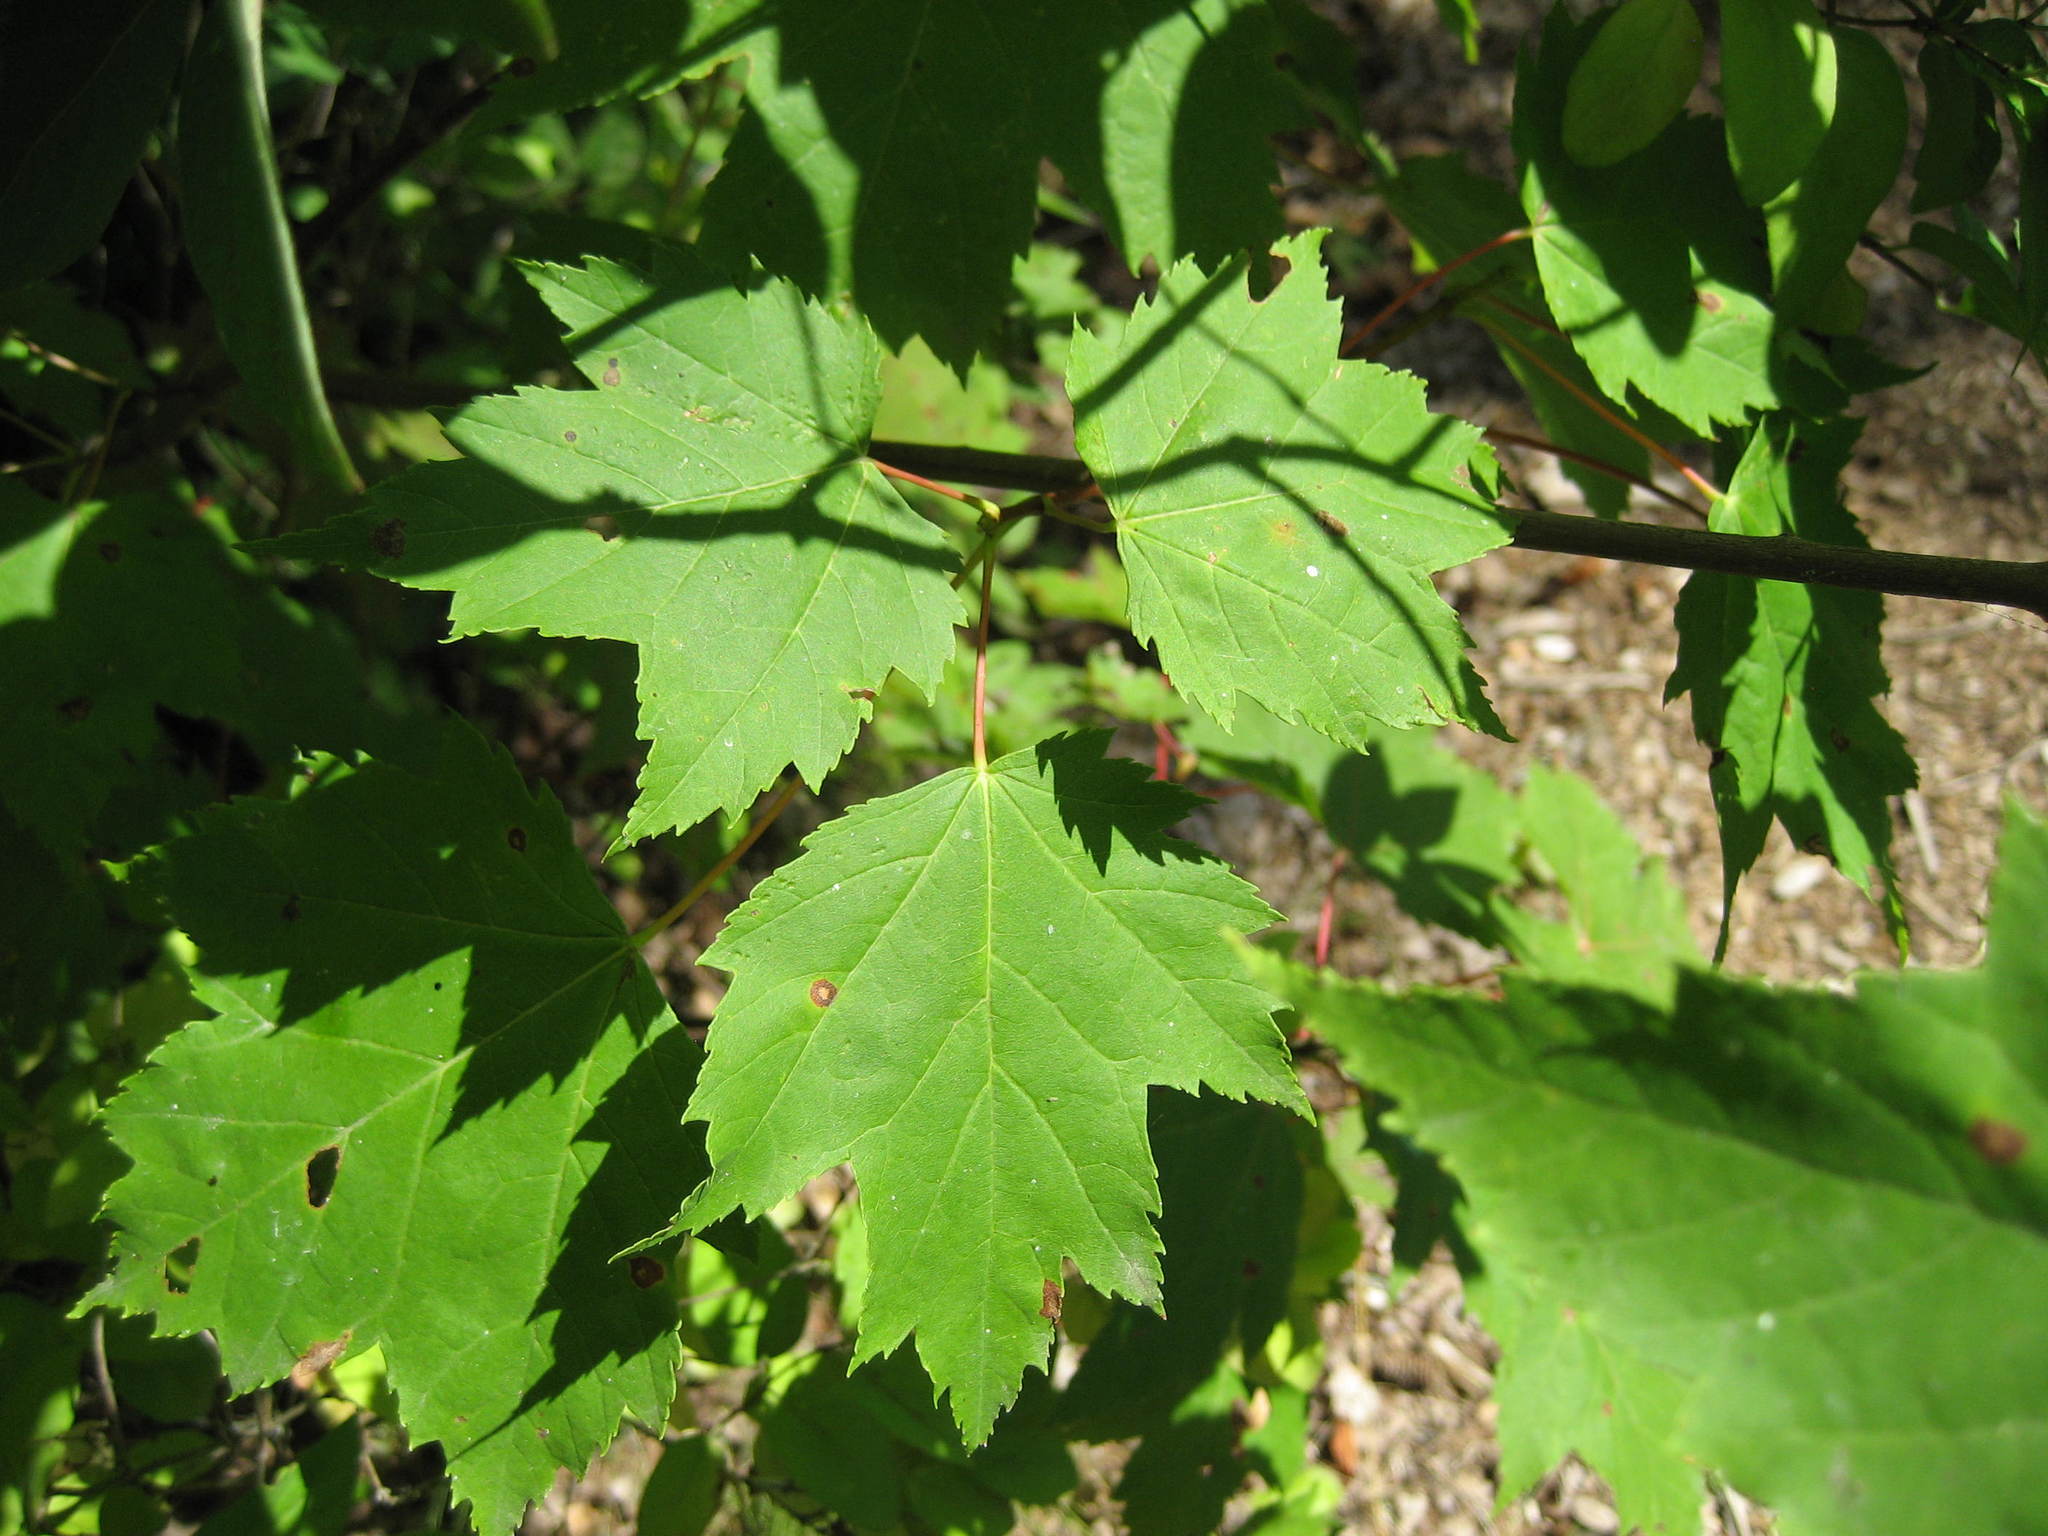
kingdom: Plantae
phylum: Tracheophyta
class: Magnoliopsida
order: Sapindales
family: Sapindaceae
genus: Acer
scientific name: Acer rubrum
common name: Red maple
